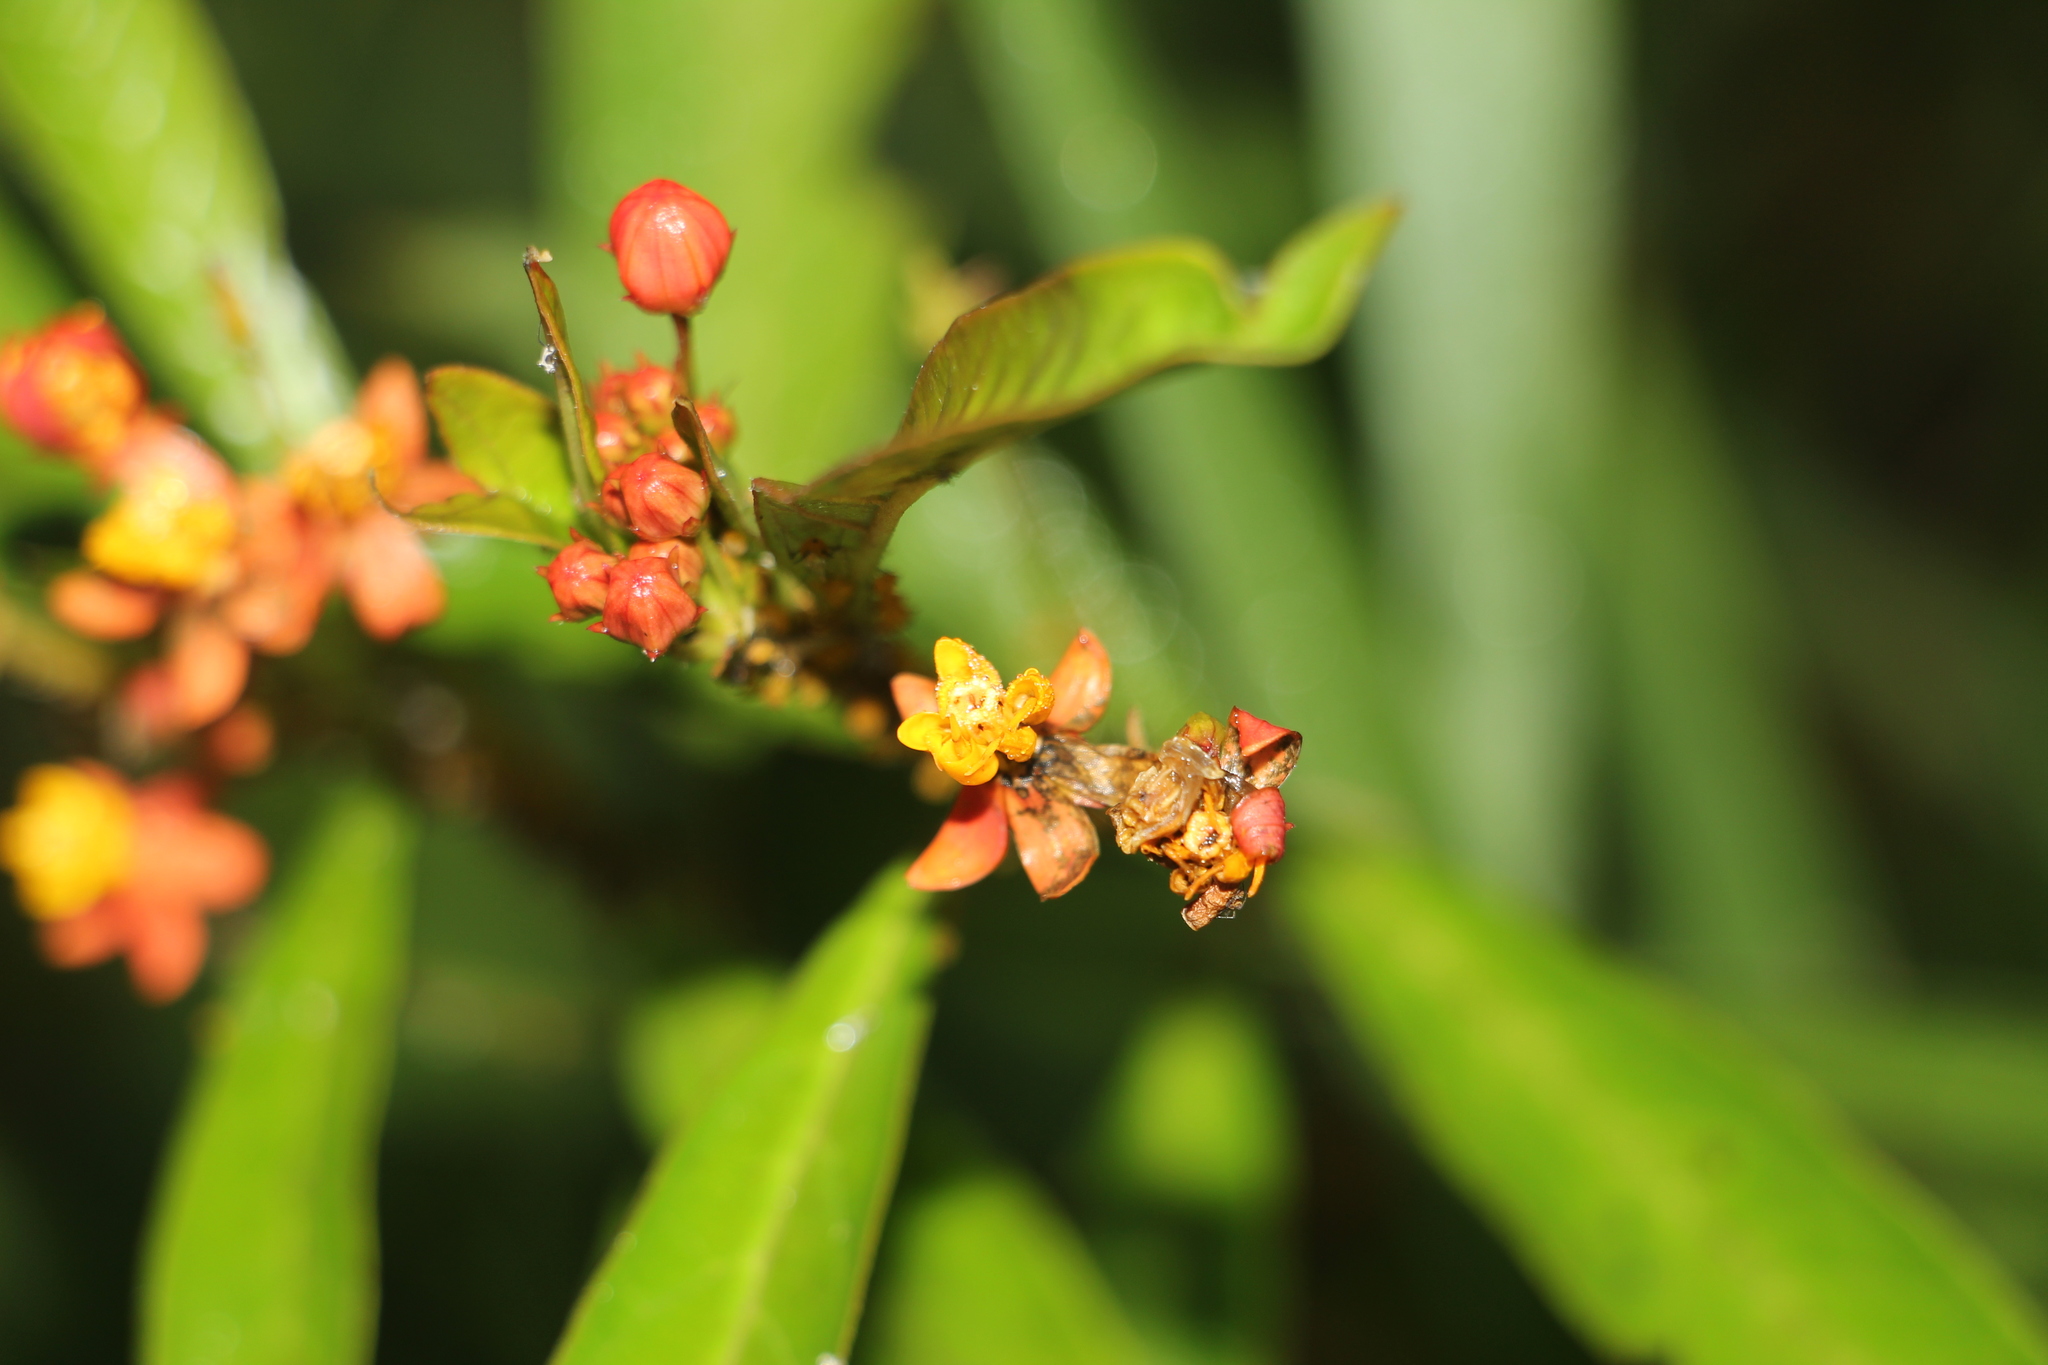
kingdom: Plantae
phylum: Tracheophyta
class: Magnoliopsida
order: Gentianales
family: Apocynaceae
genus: Asclepias
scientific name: Asclepias curassavica
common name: Bloodflower
